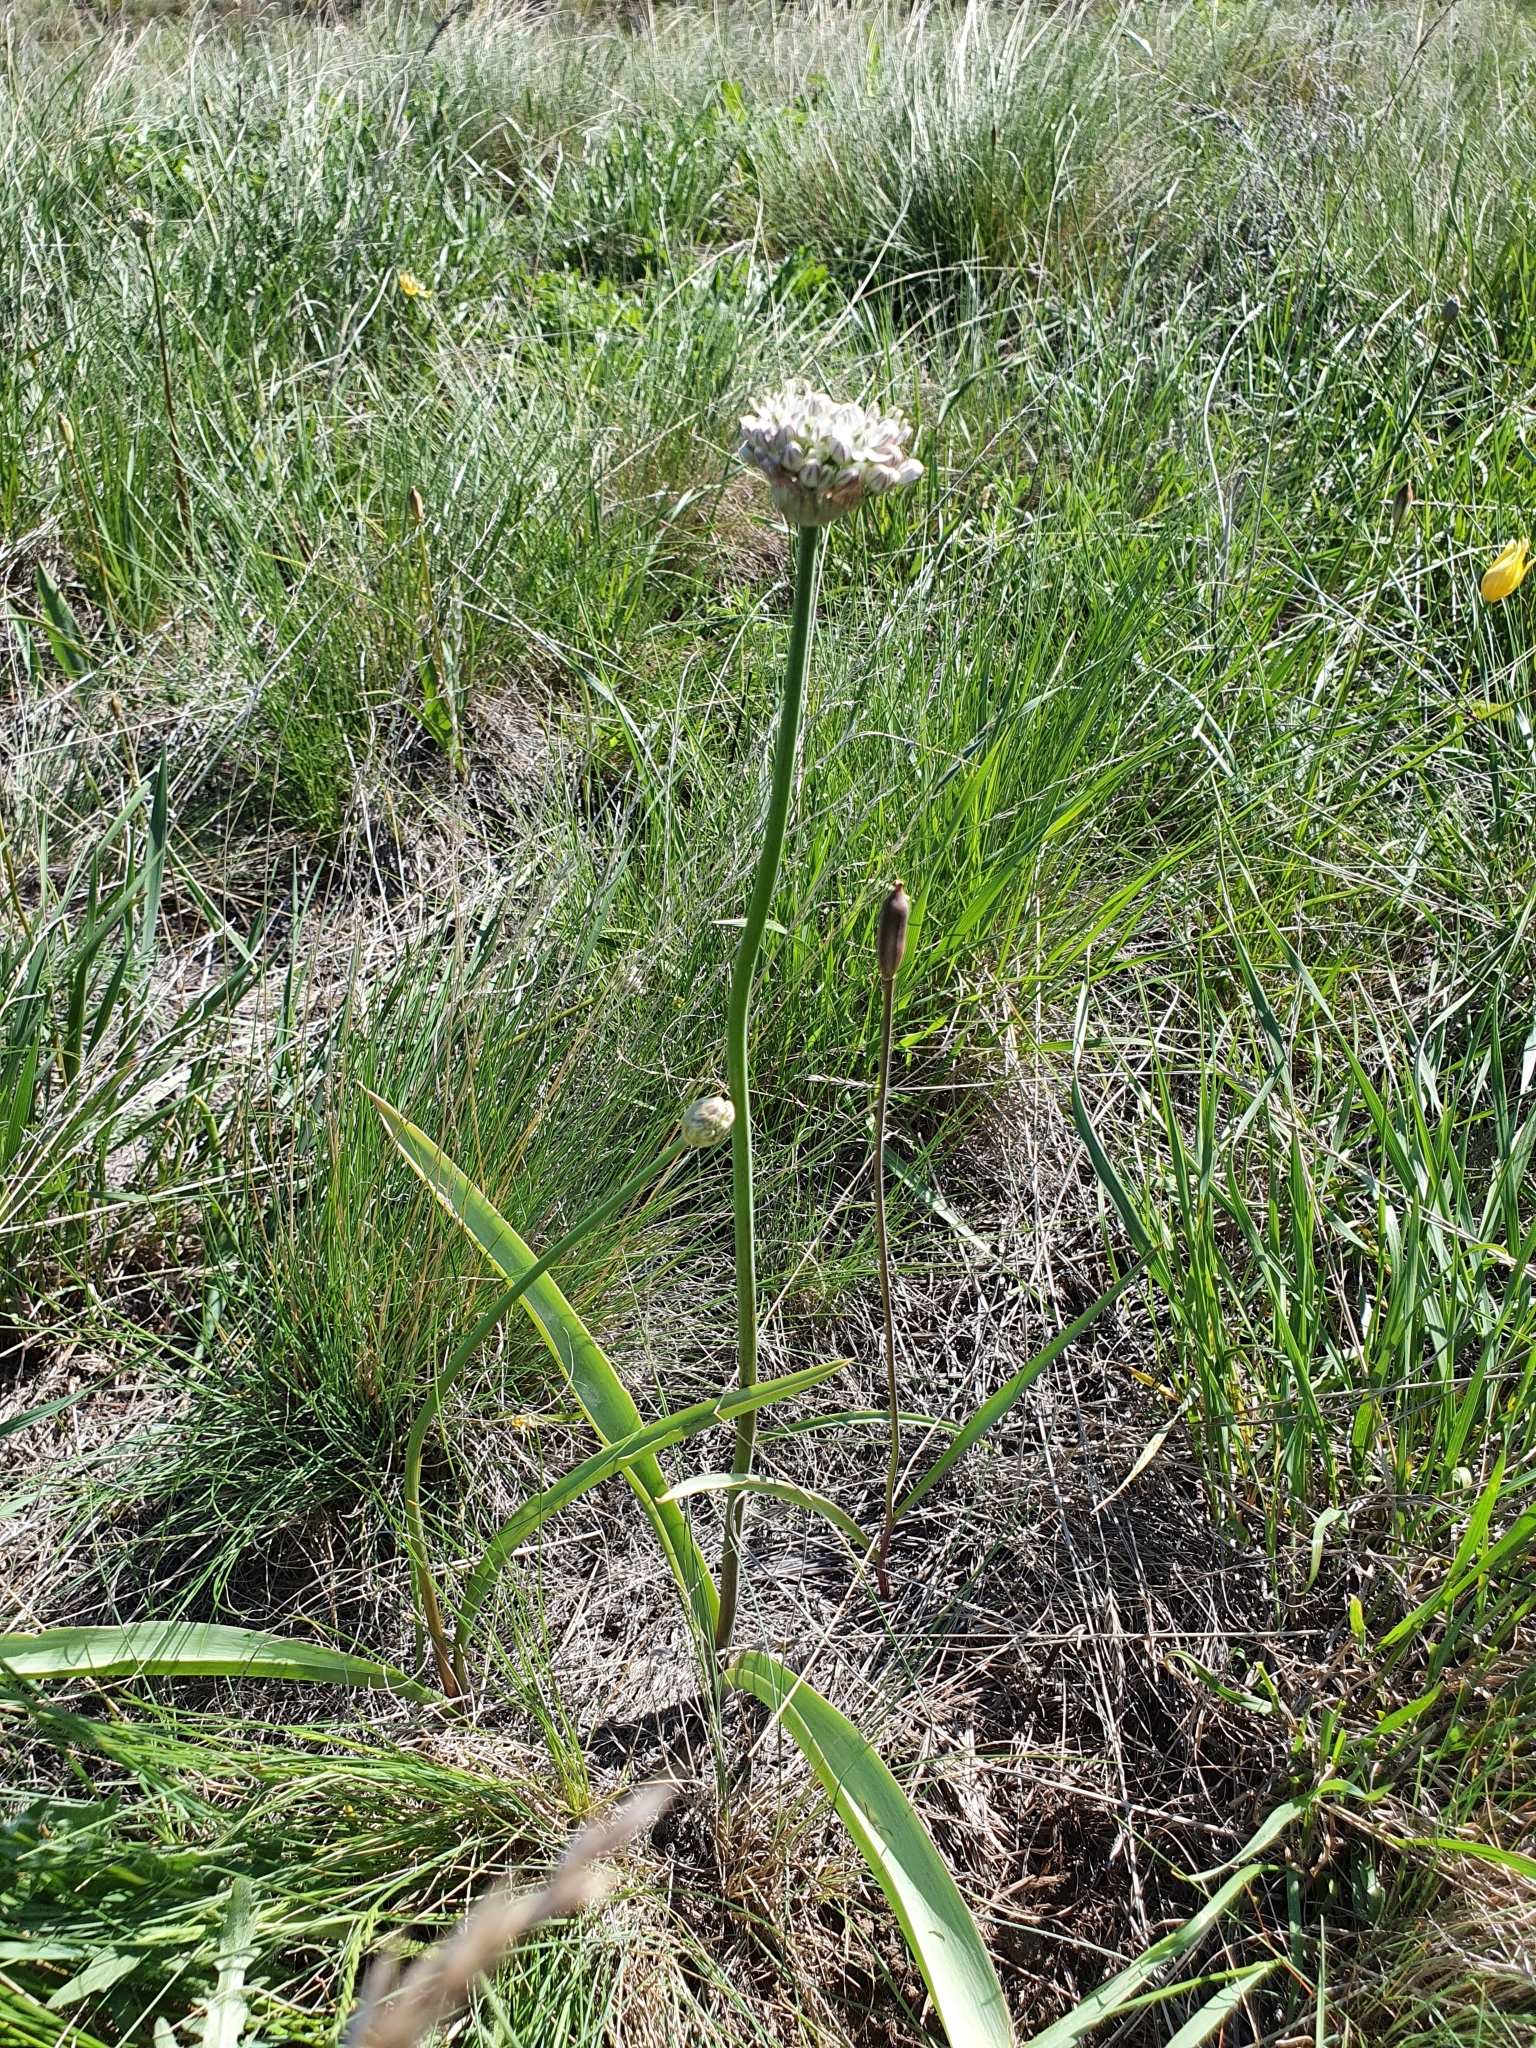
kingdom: Plantae
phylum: Tracheophyta
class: Liliopsida
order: Asparagales
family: Amaryllidaceae
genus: Allium
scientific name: Allium tulipifolium
